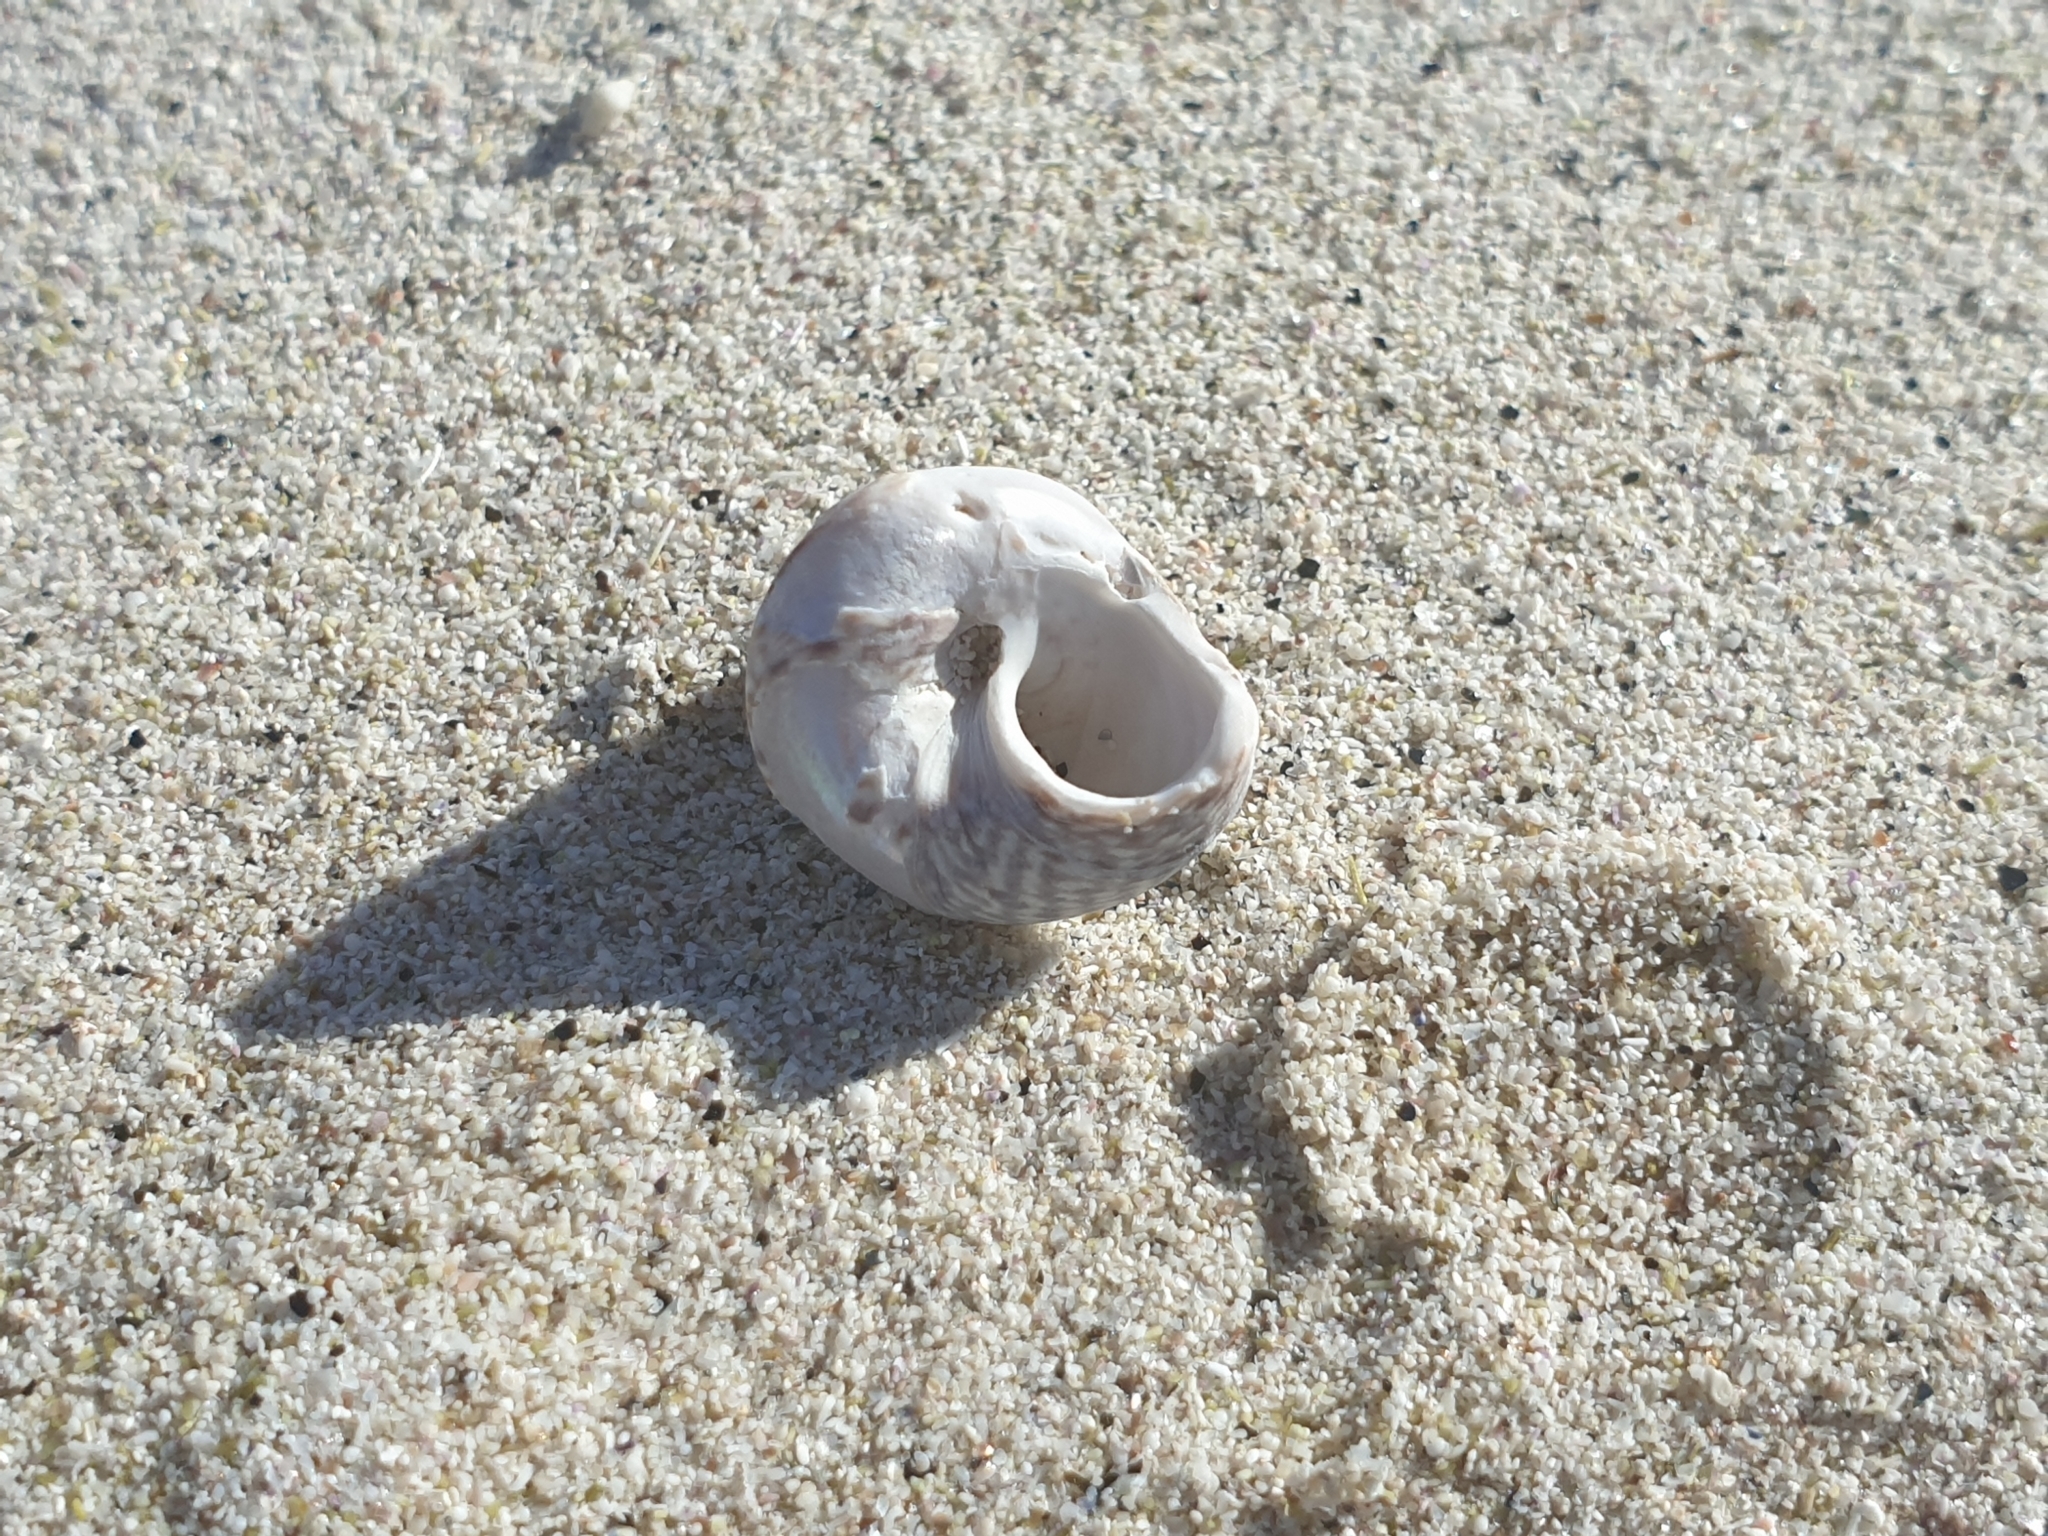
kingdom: Animalia
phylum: Mollusca
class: Gastropoda
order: Trochida
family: Trochidae
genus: Steromphala
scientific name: Steromphala cineraria
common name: Grey top shell
